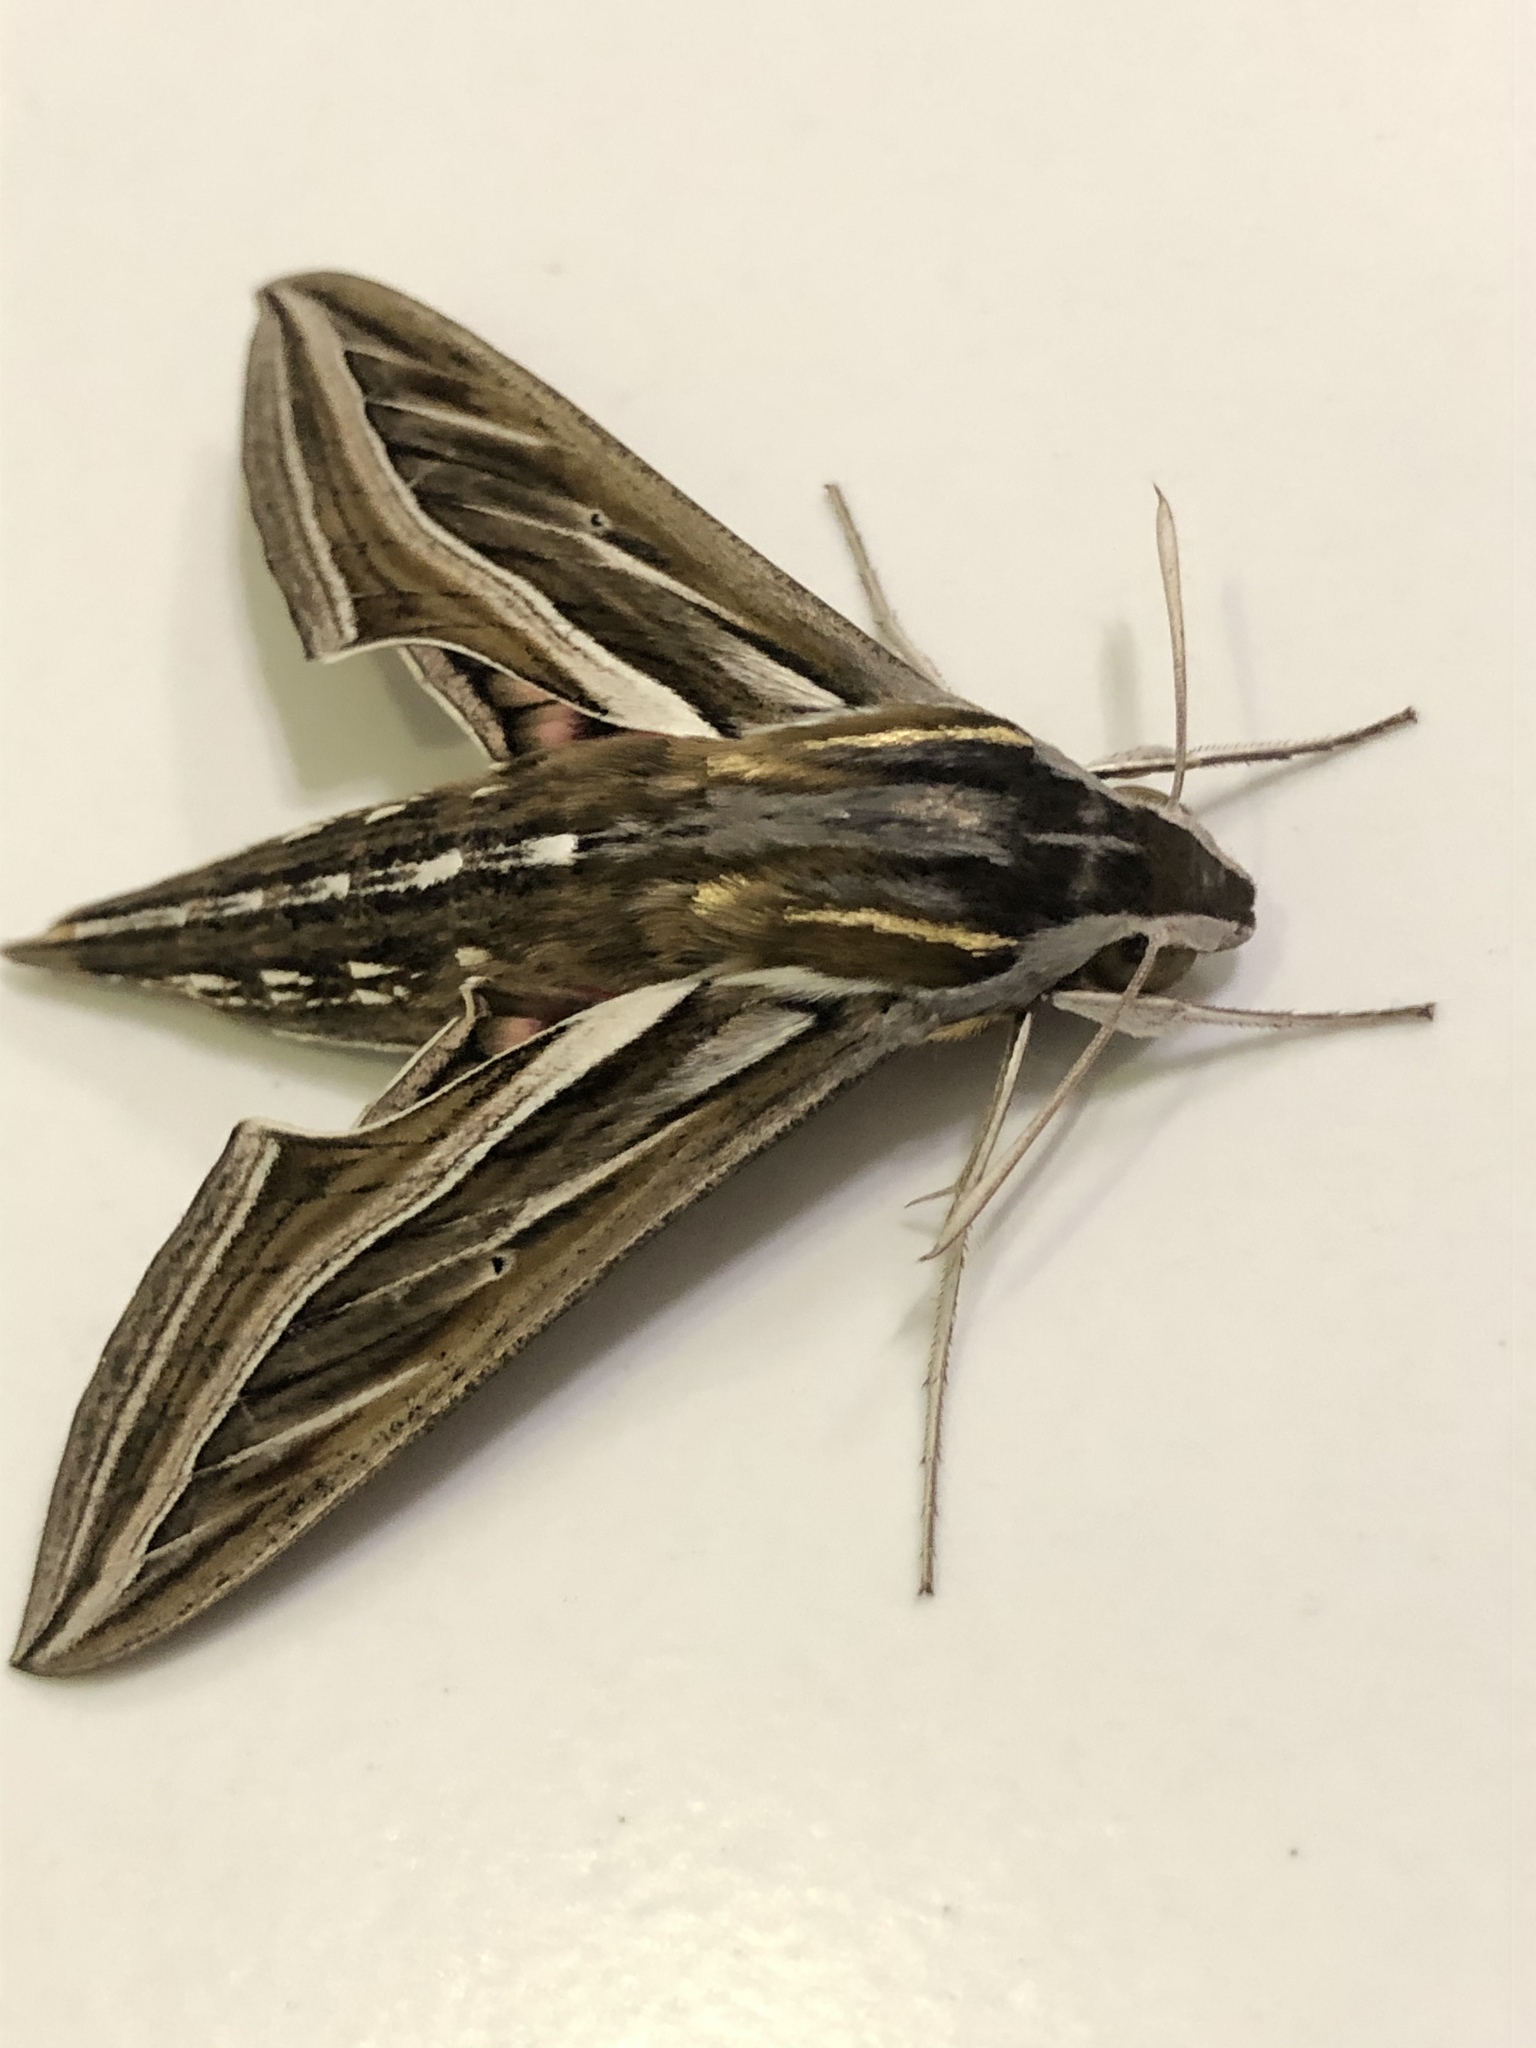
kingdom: Animalia
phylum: Arthropoda
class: Insecta
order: Lepidoptera
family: Sphingidae
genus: Hippotion
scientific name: Hippotion celerio
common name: Silver-striped hawk-moth
